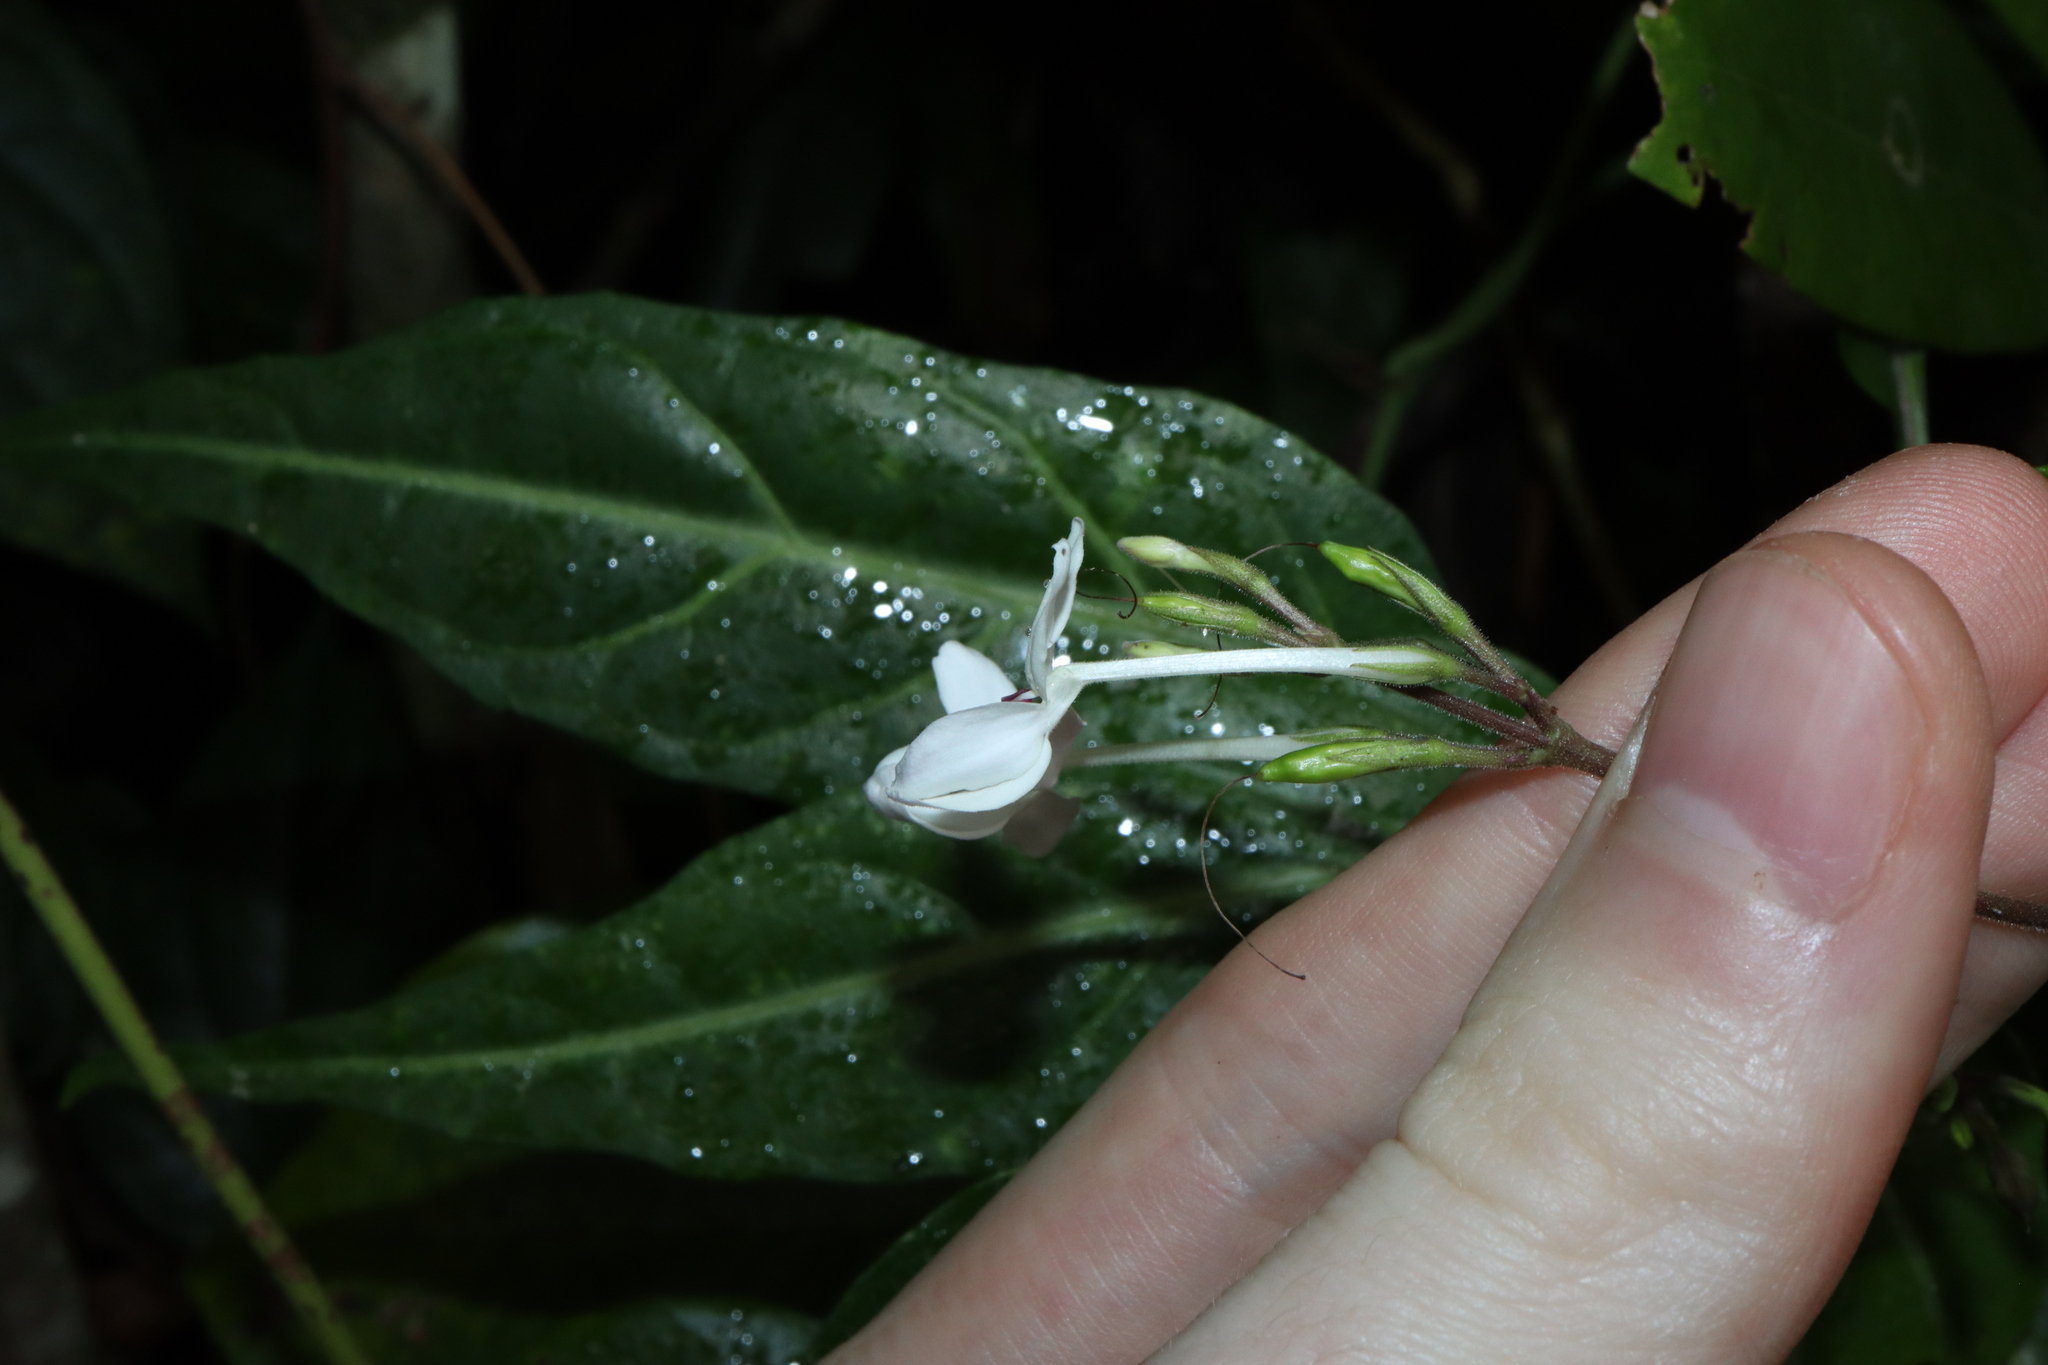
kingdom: Plantae
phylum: Tracheophyta
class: Magnoliopsida
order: Lamiales
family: Acanthaceae
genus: Pseuderanthemum
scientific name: Pseuderanthemum variabile
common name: Night and afternoon
